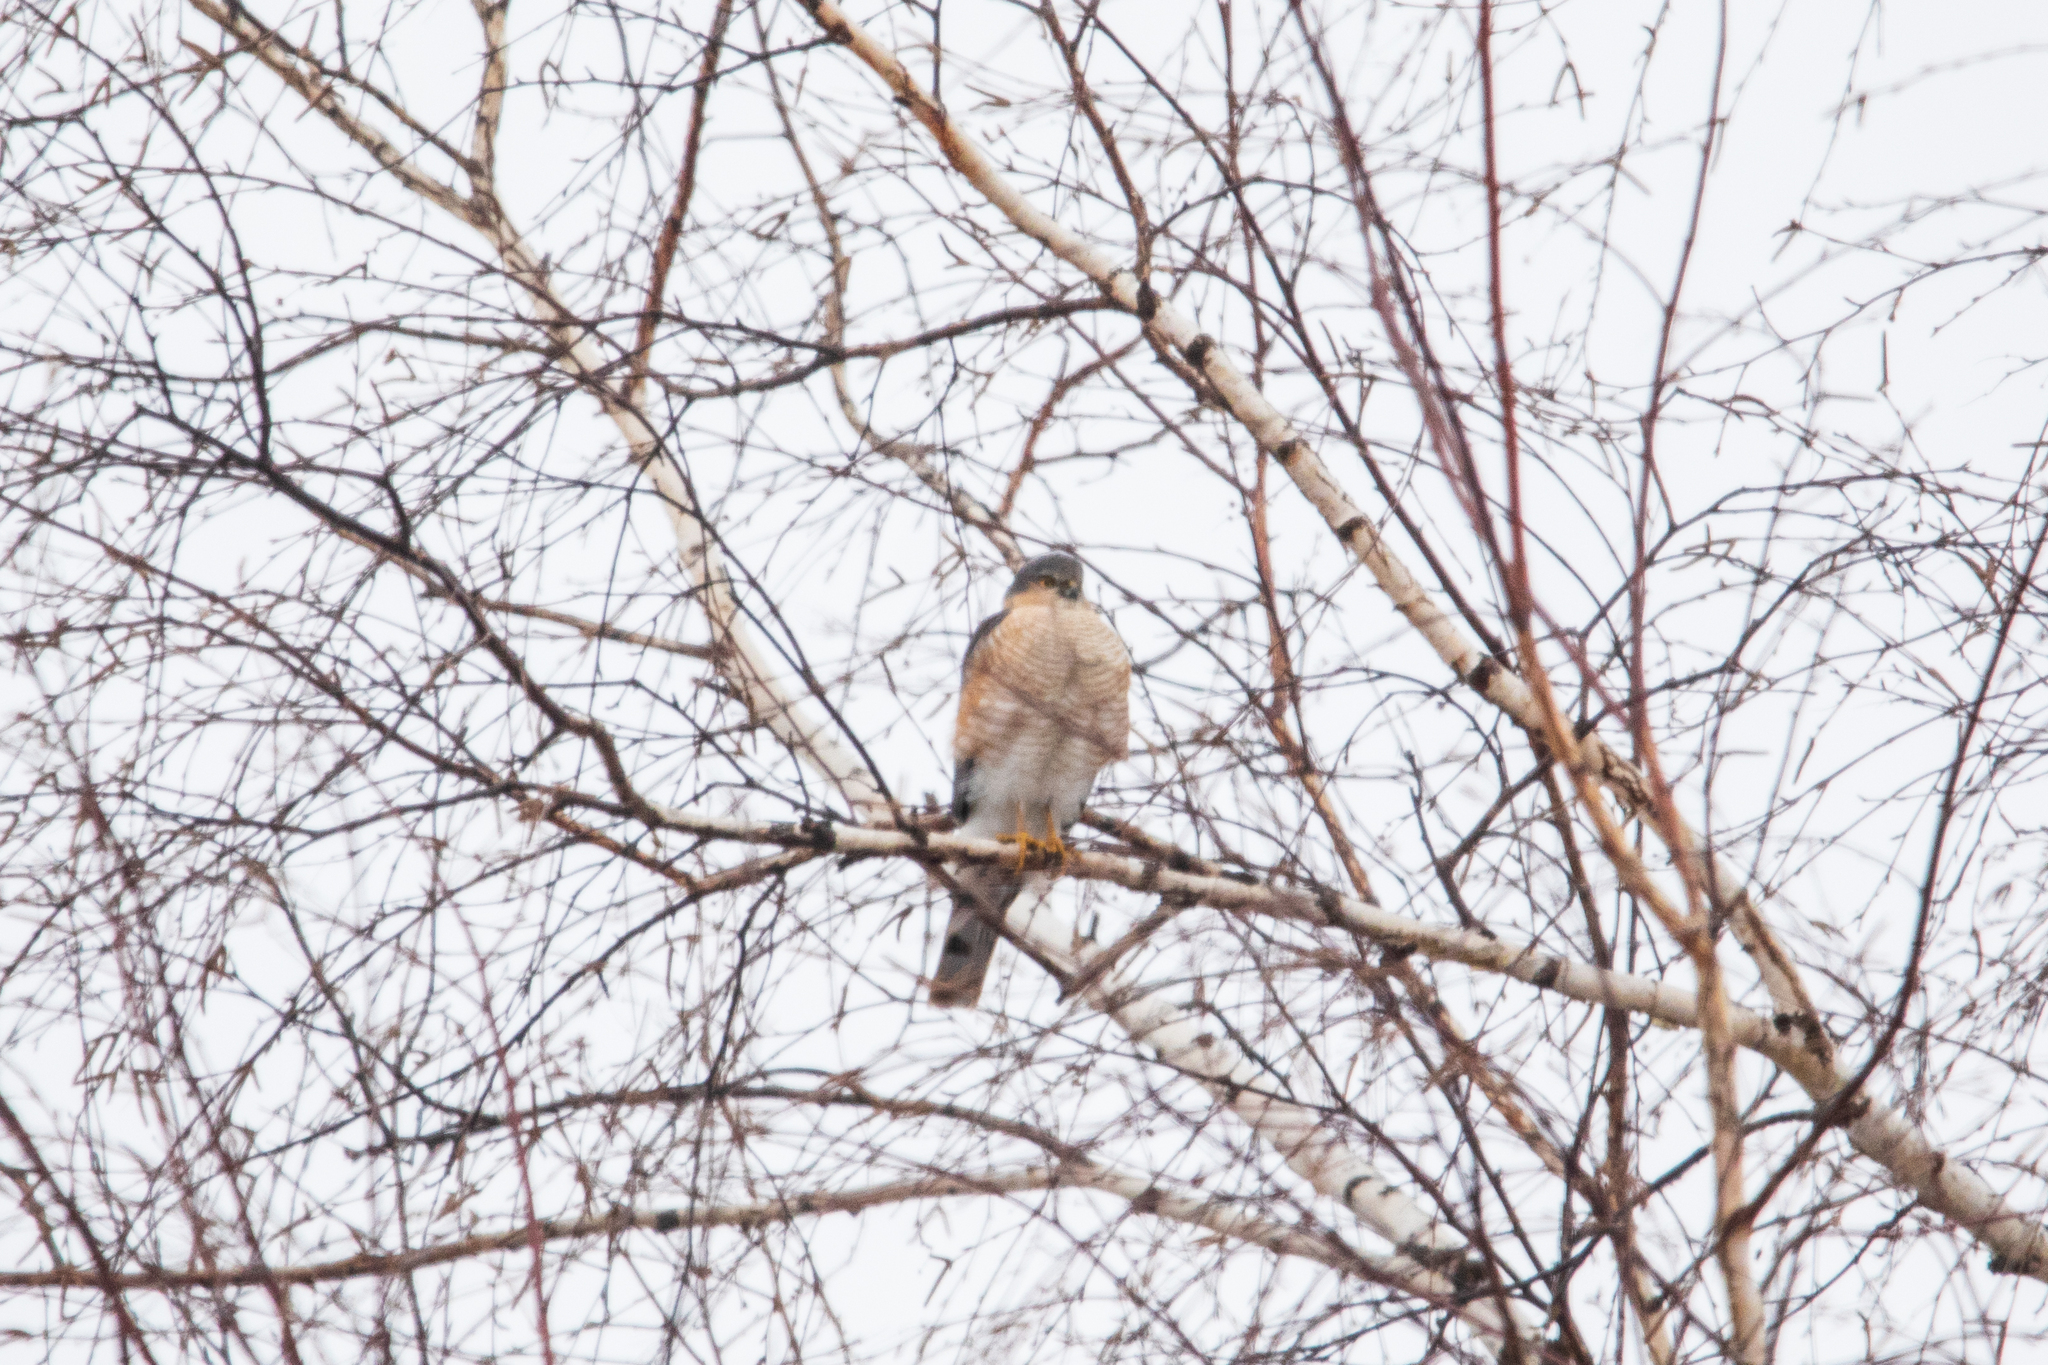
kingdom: Animalia
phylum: Chordata
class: Aves
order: Accipitriformes
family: Accipitridae
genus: Accipiter
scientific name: Accipiter nisus
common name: Eurasian sparrowhawk
